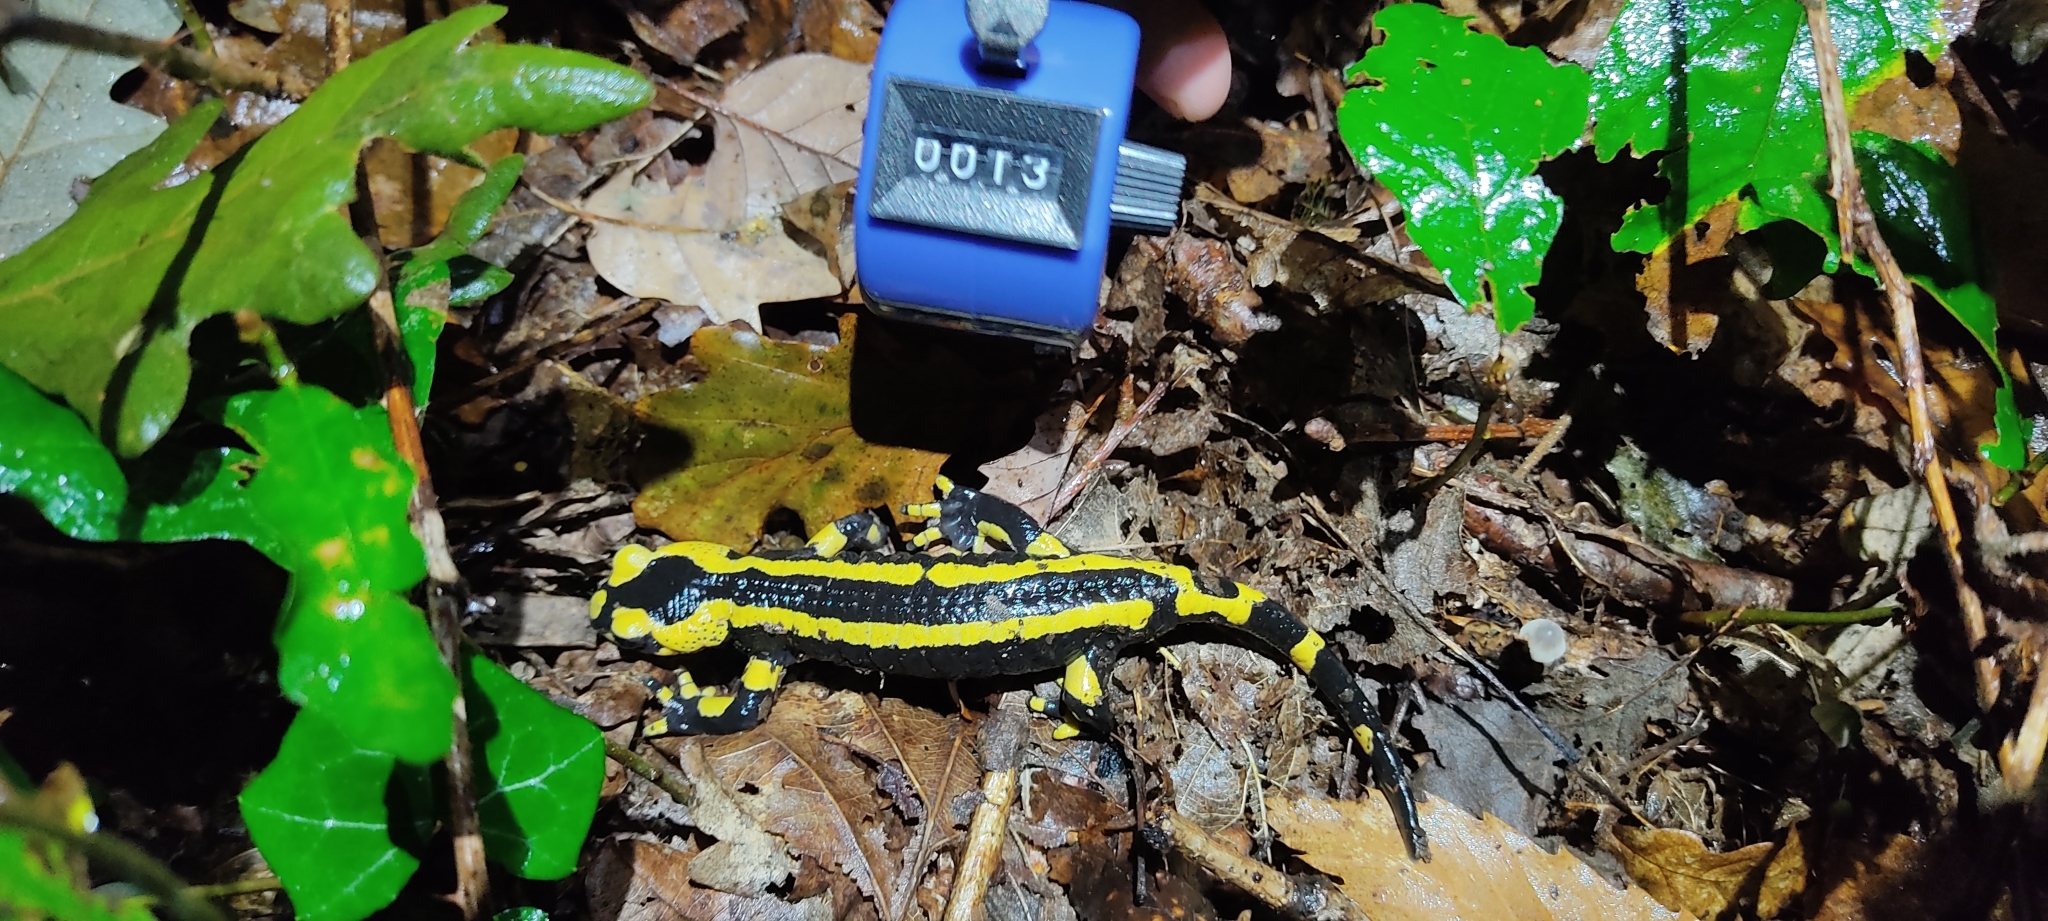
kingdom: Animalia
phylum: Chordata
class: Amphibia
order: Caudata
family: Salamandridae
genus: Salamandra
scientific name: Salamandra salamandra
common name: Fire salamander
